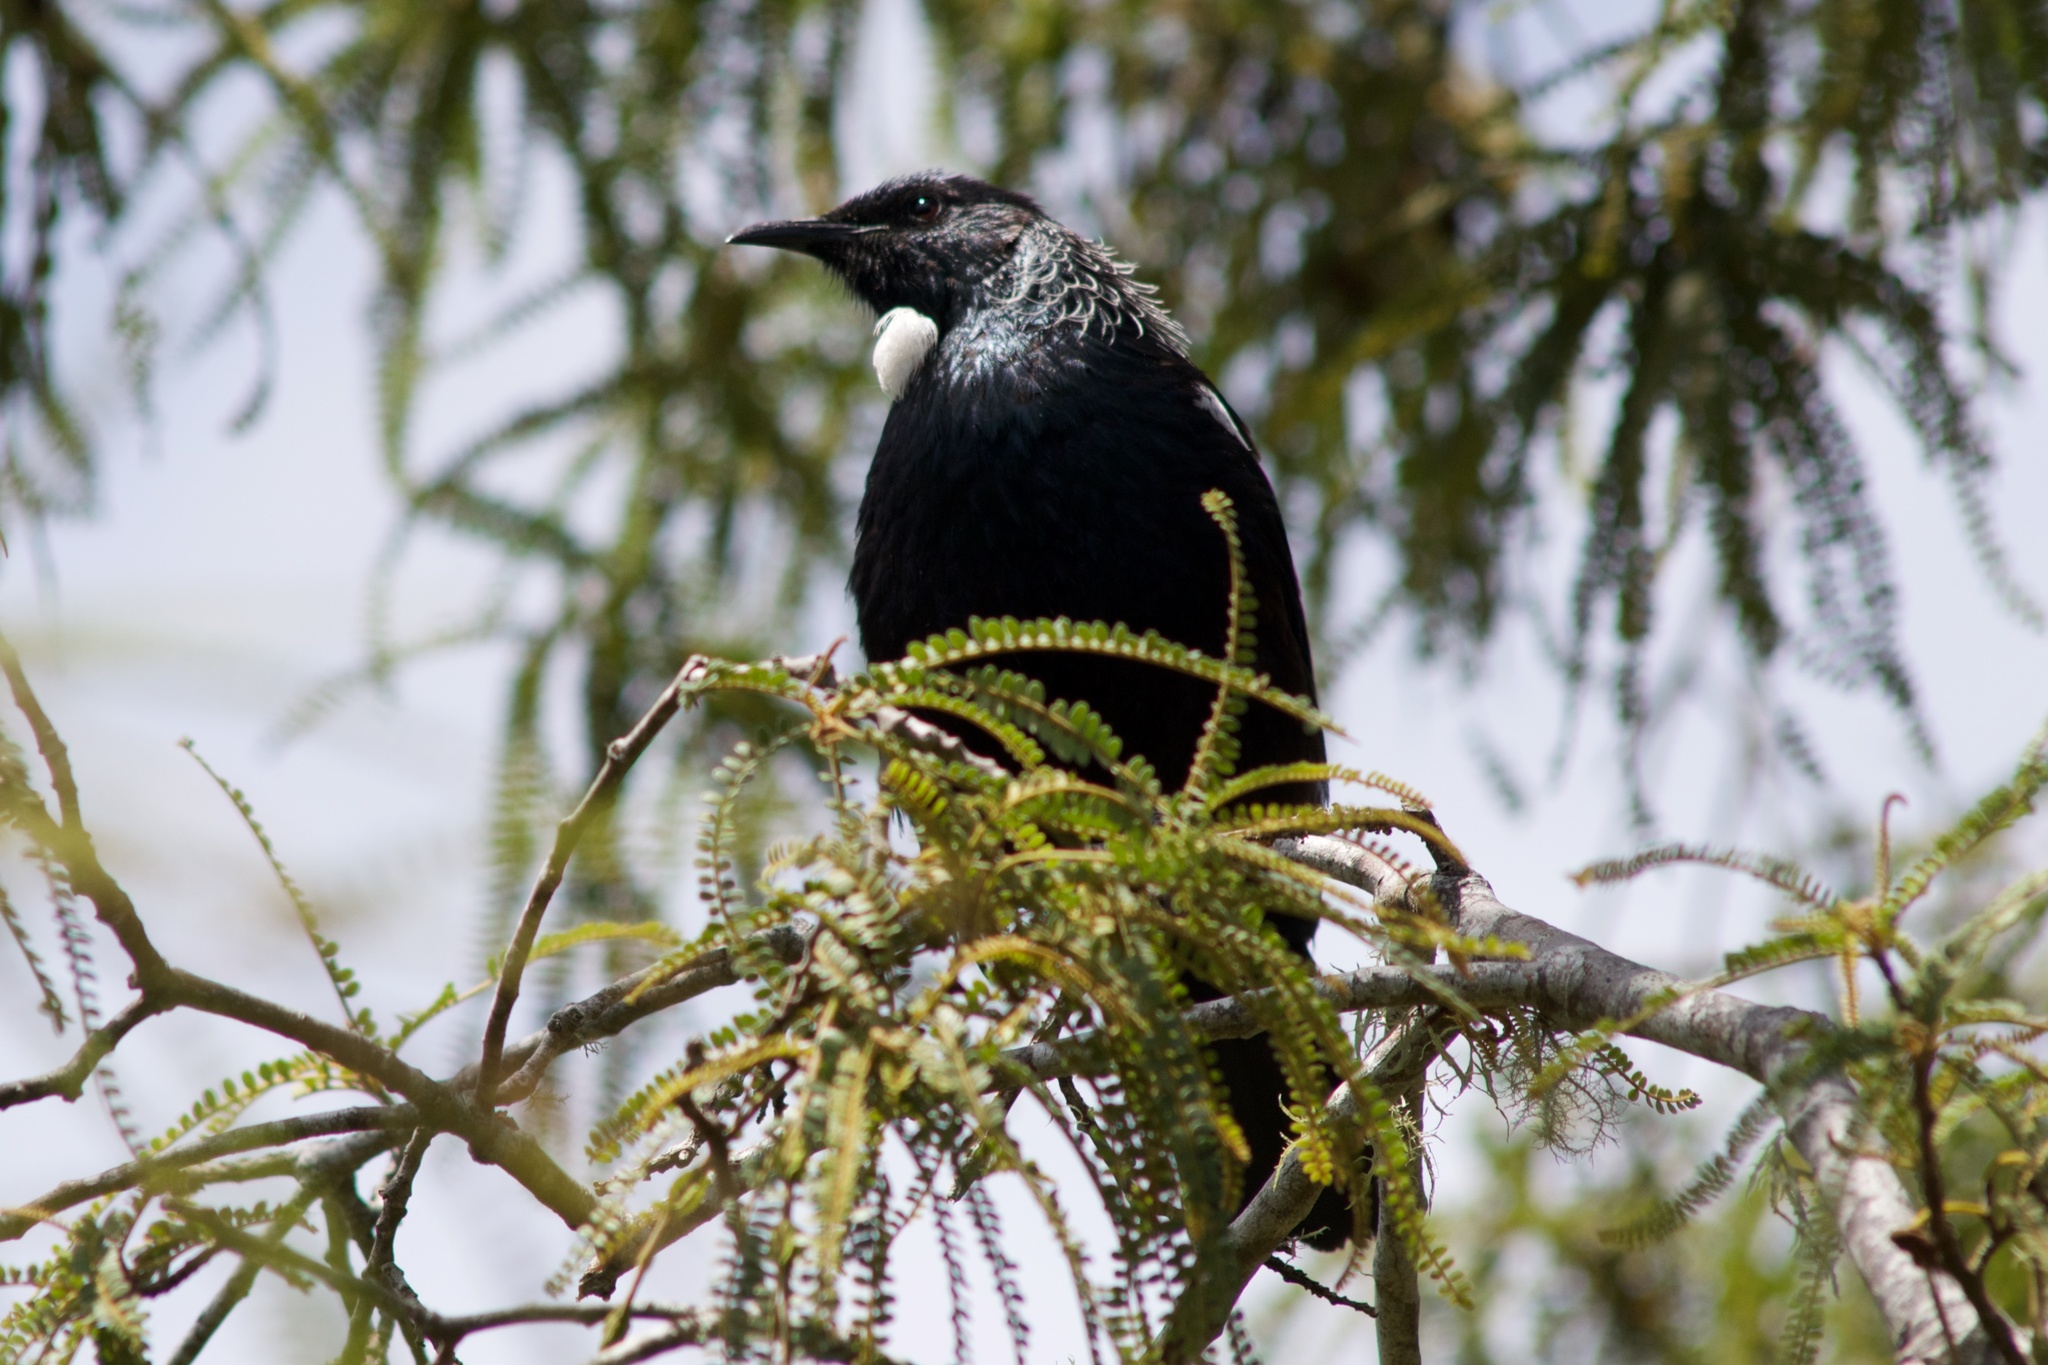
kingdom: Animalia
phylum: Chordata
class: Aves
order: Passeriformes
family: Meliphagidae
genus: Prosthemadera
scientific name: Prosthemadera novaeseelandiae
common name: Tui
